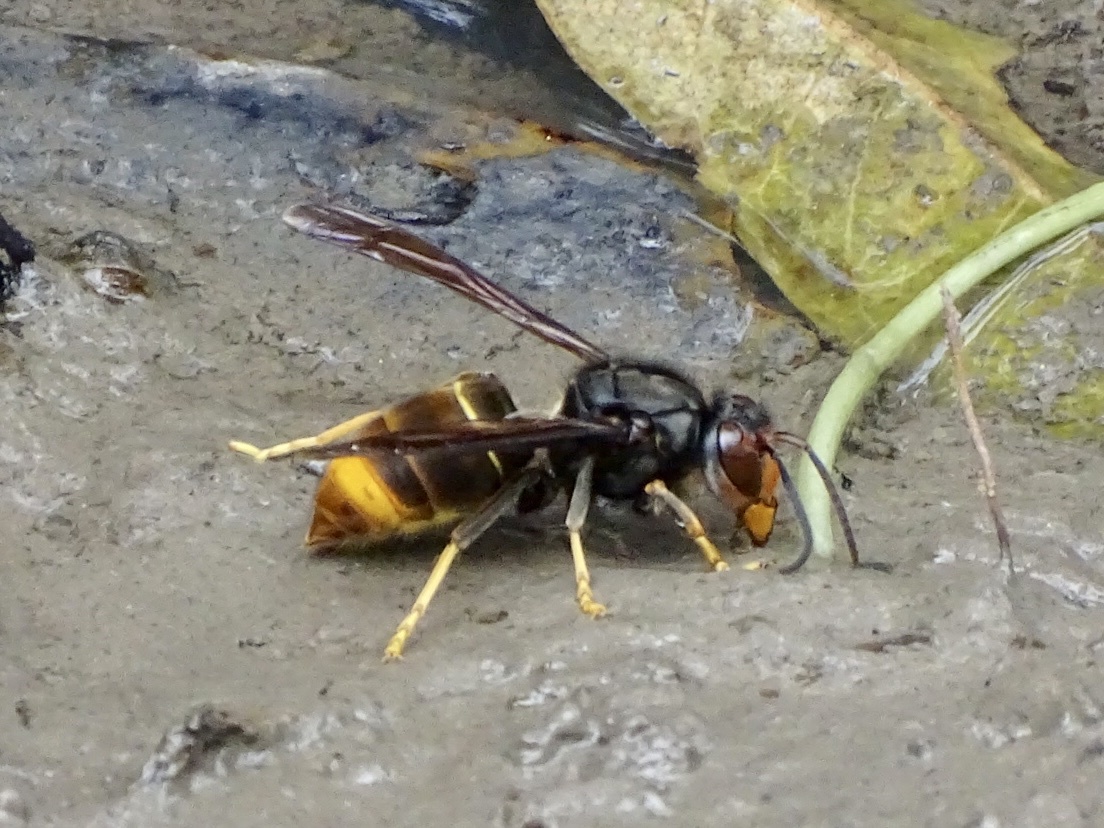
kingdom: Animalia
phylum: Arthropoda
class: Insecta
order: Hymenoptera
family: Vespidae
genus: Vespa
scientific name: Vespa velutina
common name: Asian hornet
